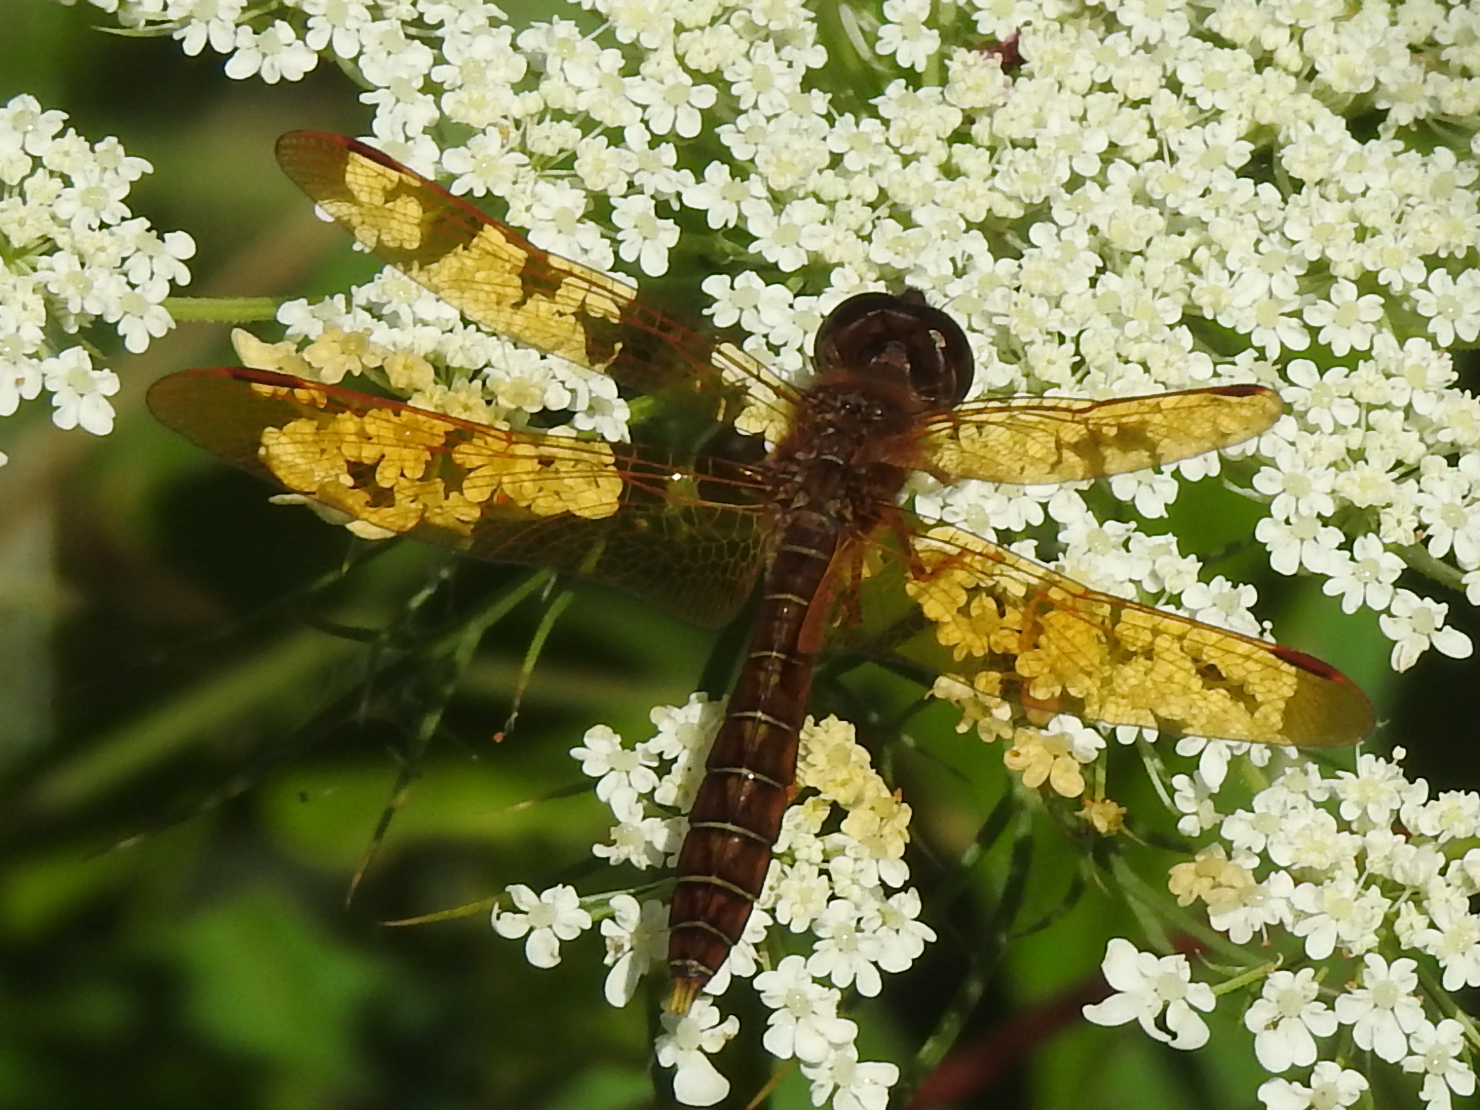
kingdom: Animalia
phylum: Arthropoda
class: Insecta
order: Odonata
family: Libellulidae
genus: Perithemis
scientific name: Perithemis tenera
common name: Eastern amberwing
